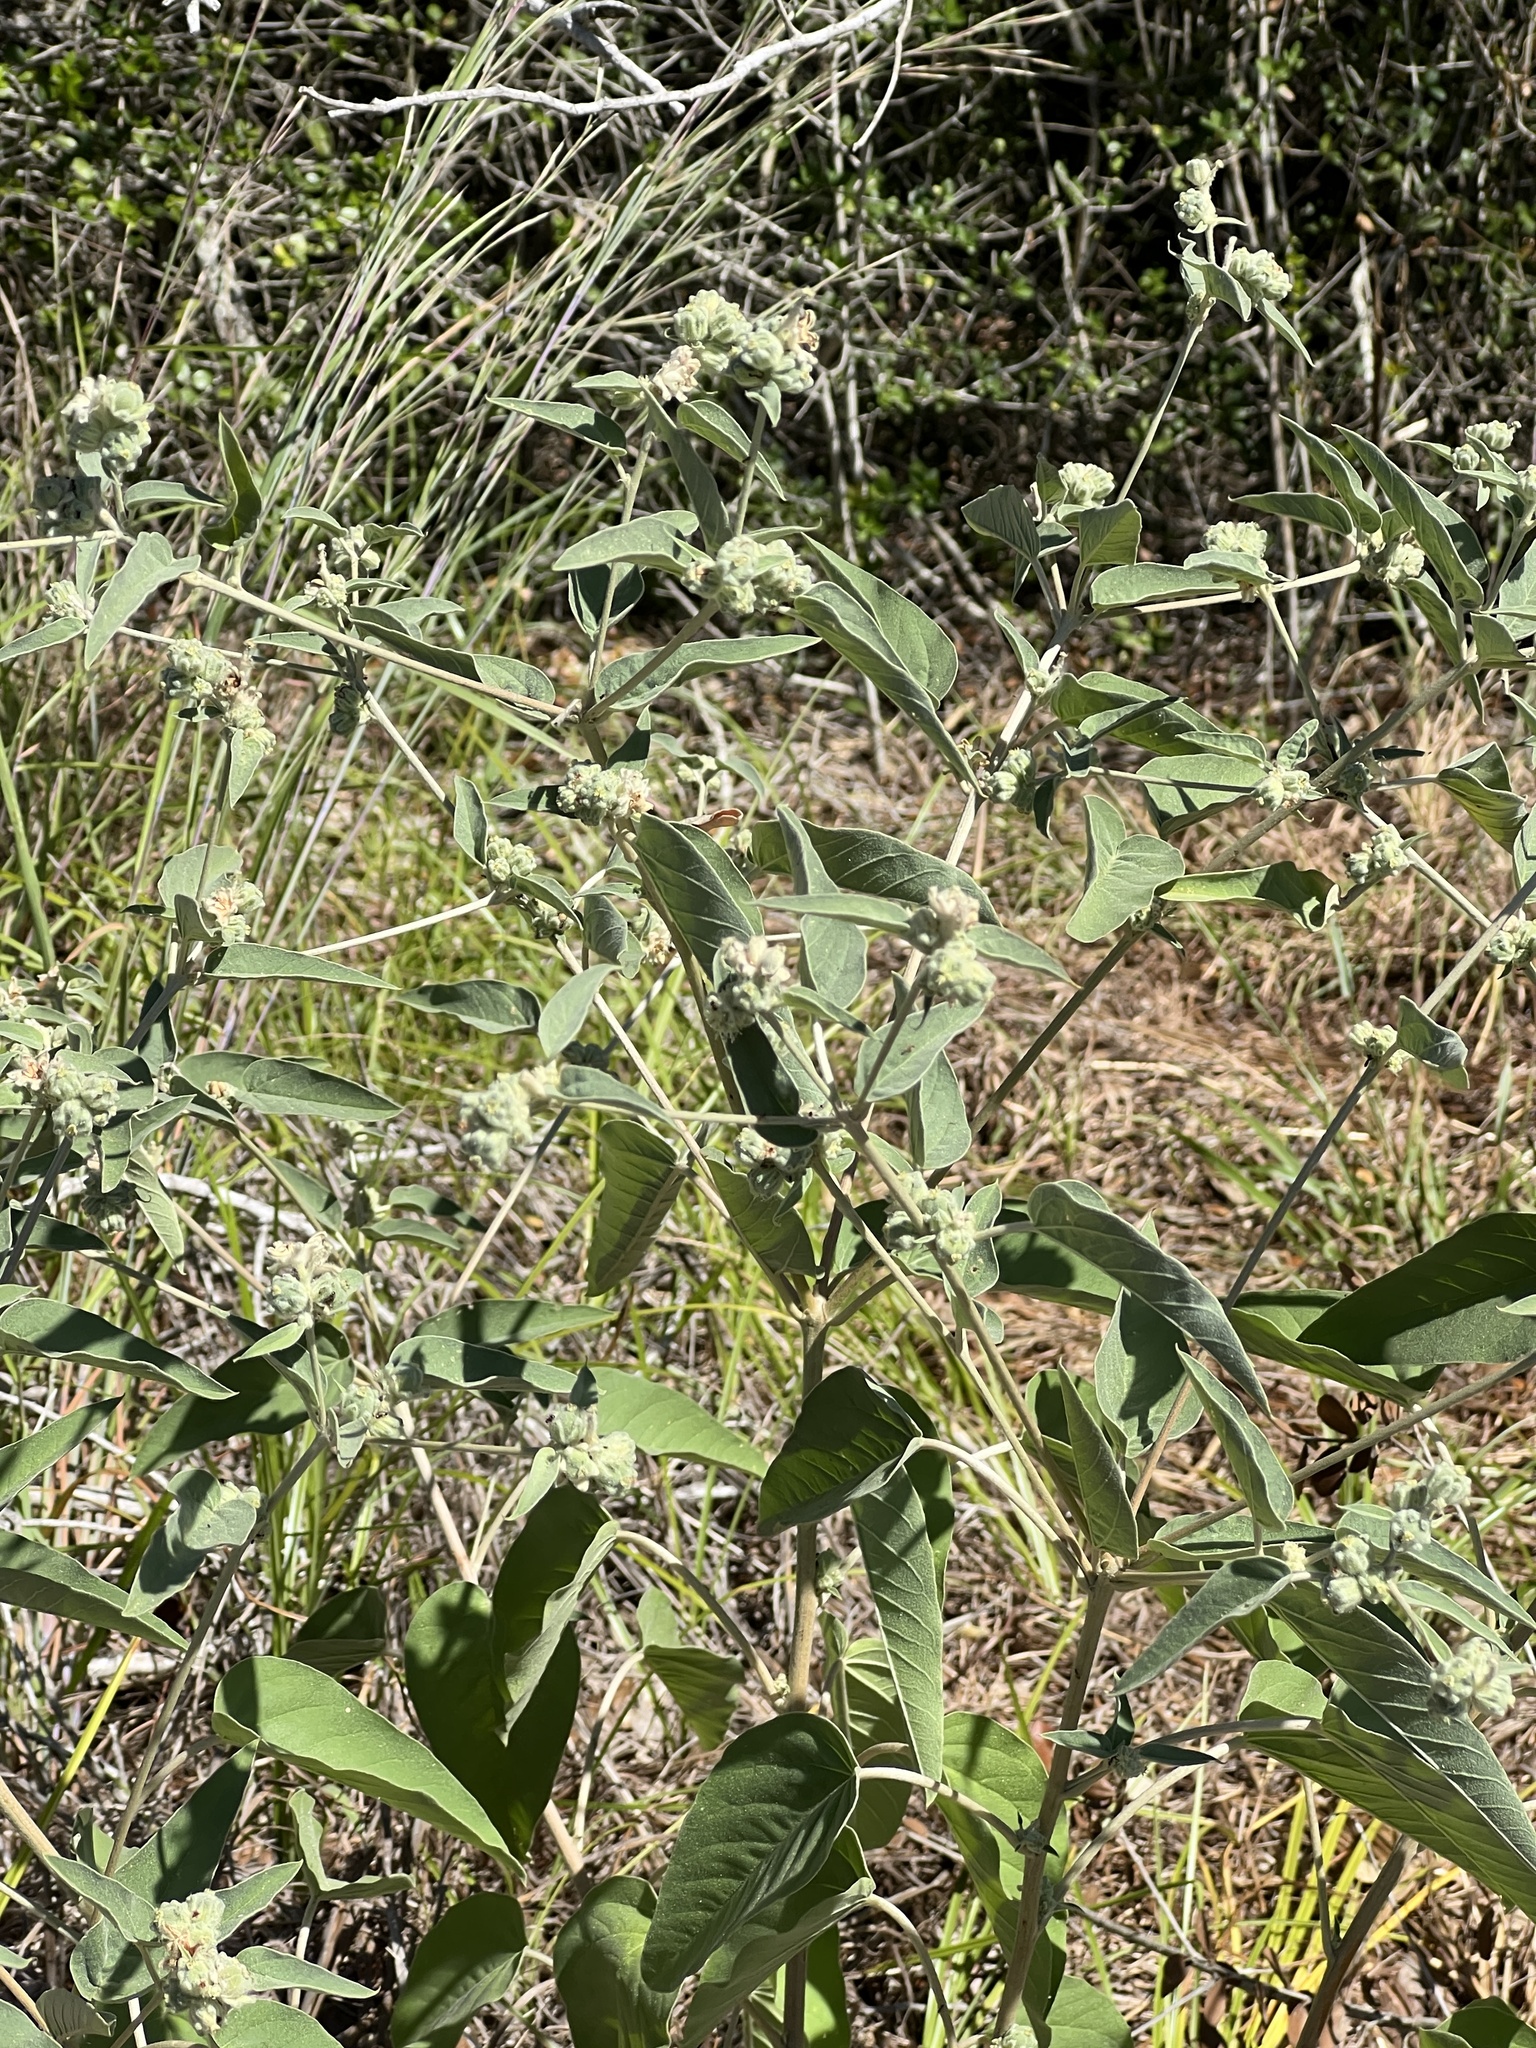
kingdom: Plantae
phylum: Tracheophyta
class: Magnoliopsida
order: Malpighiales
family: Euphorbiaceae
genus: Croton
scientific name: Croton lindheimeri
